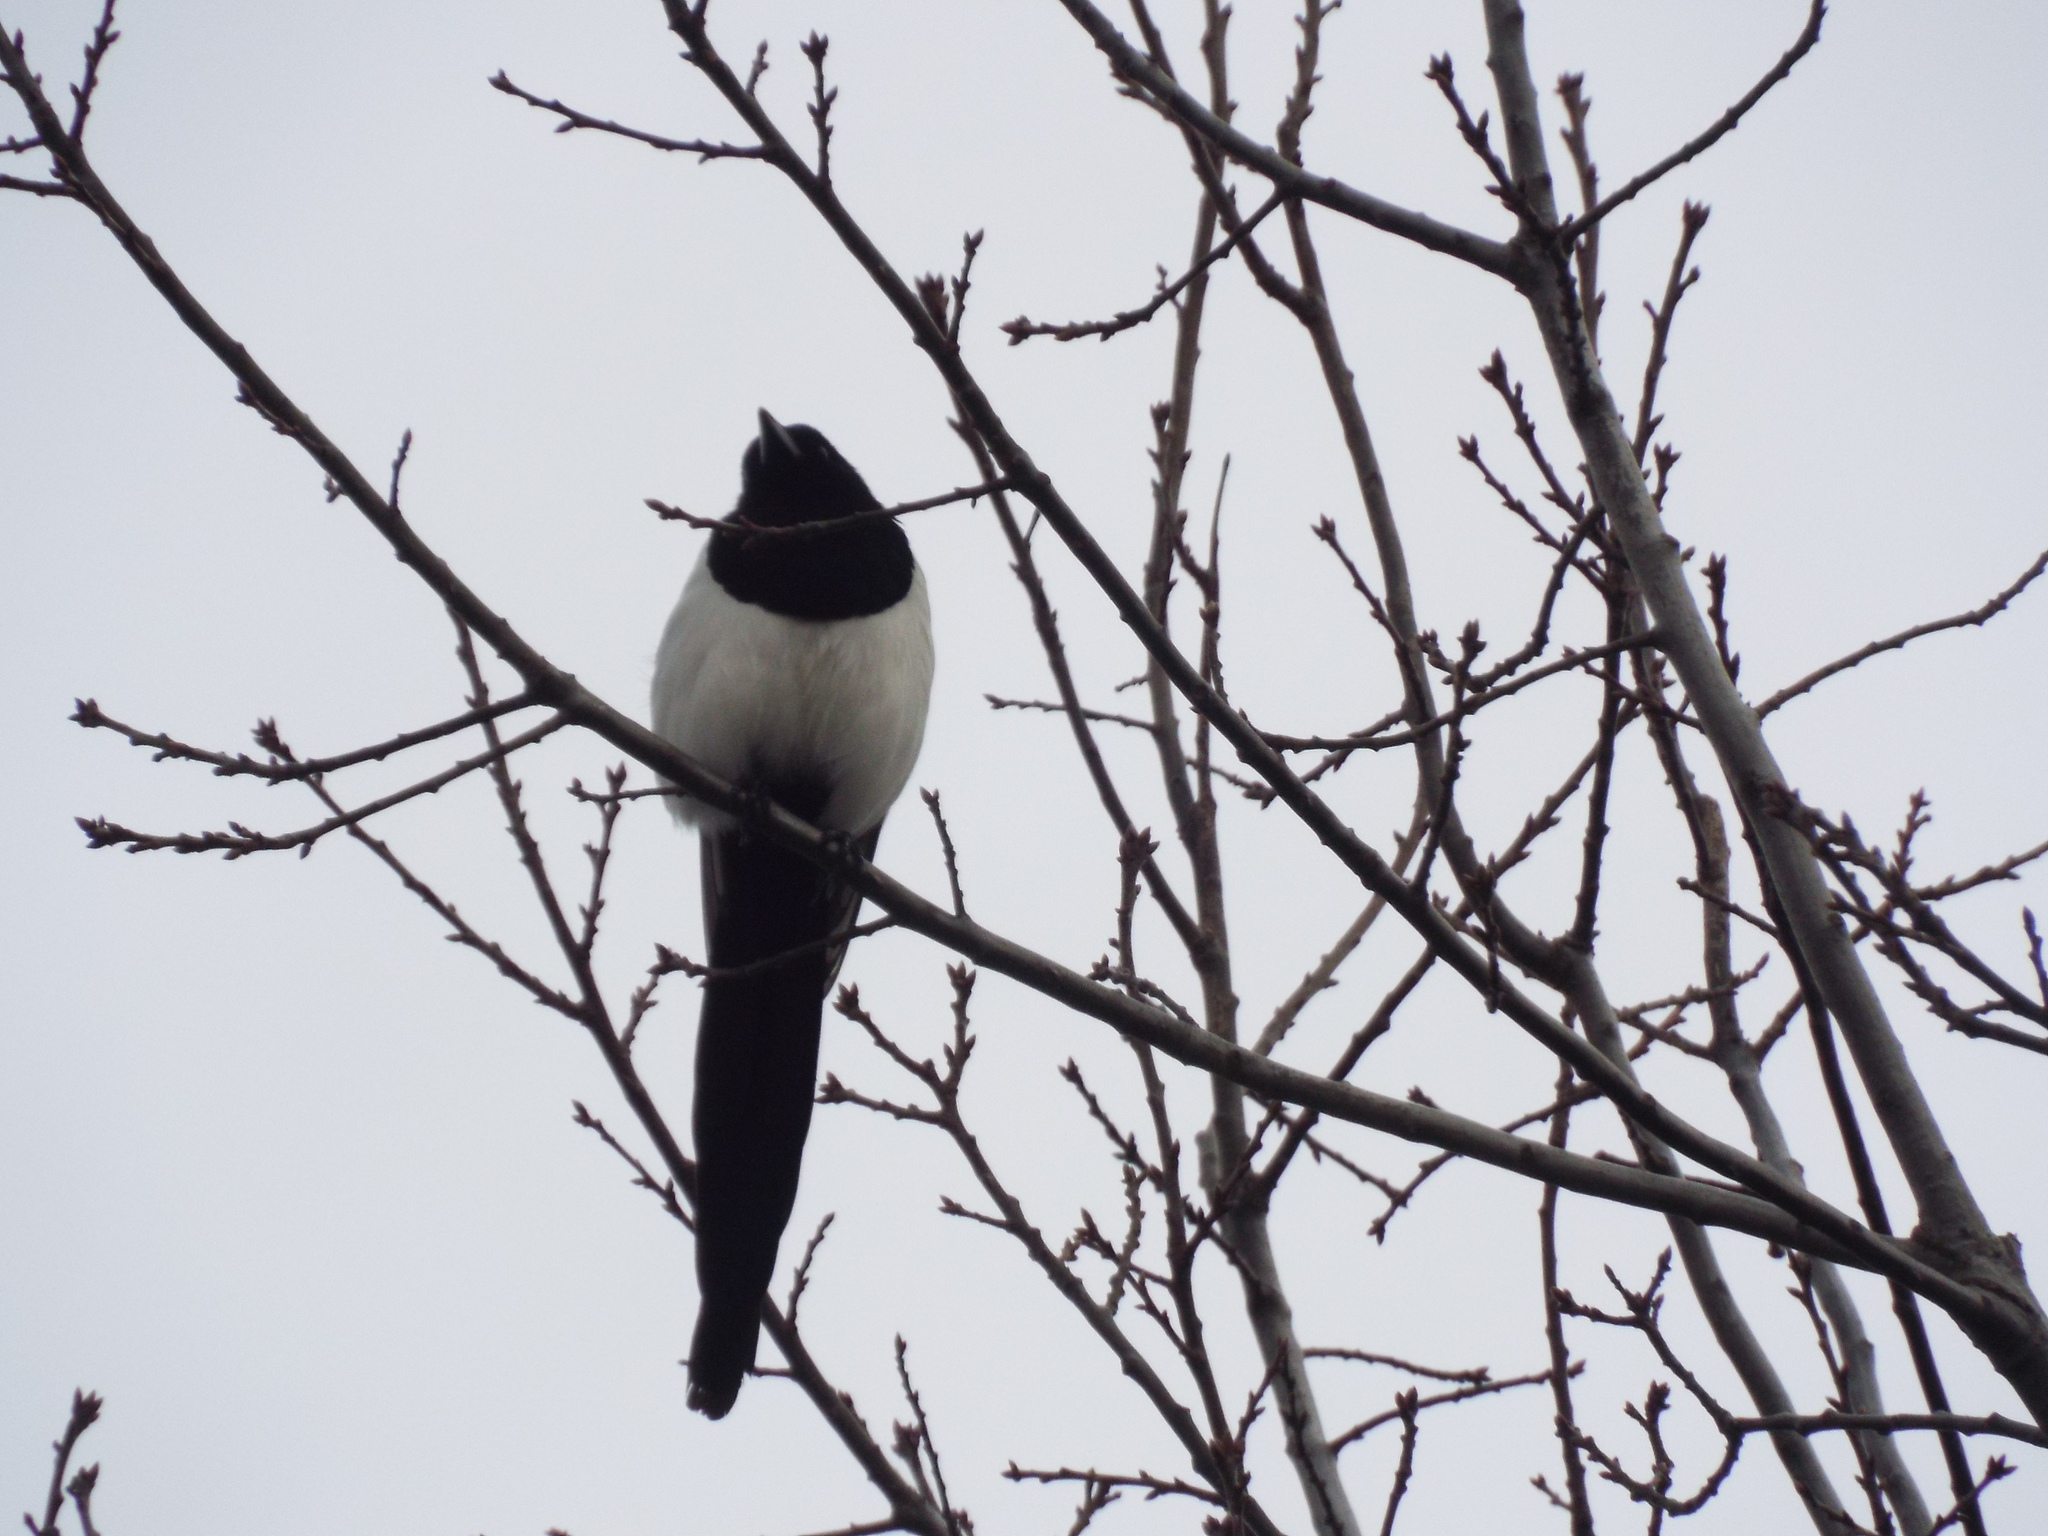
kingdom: Animalia
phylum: Chordata
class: Aves
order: Passeriformes
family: Corvidae
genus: Pica
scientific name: Pica pica
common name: Eurasian magpie
